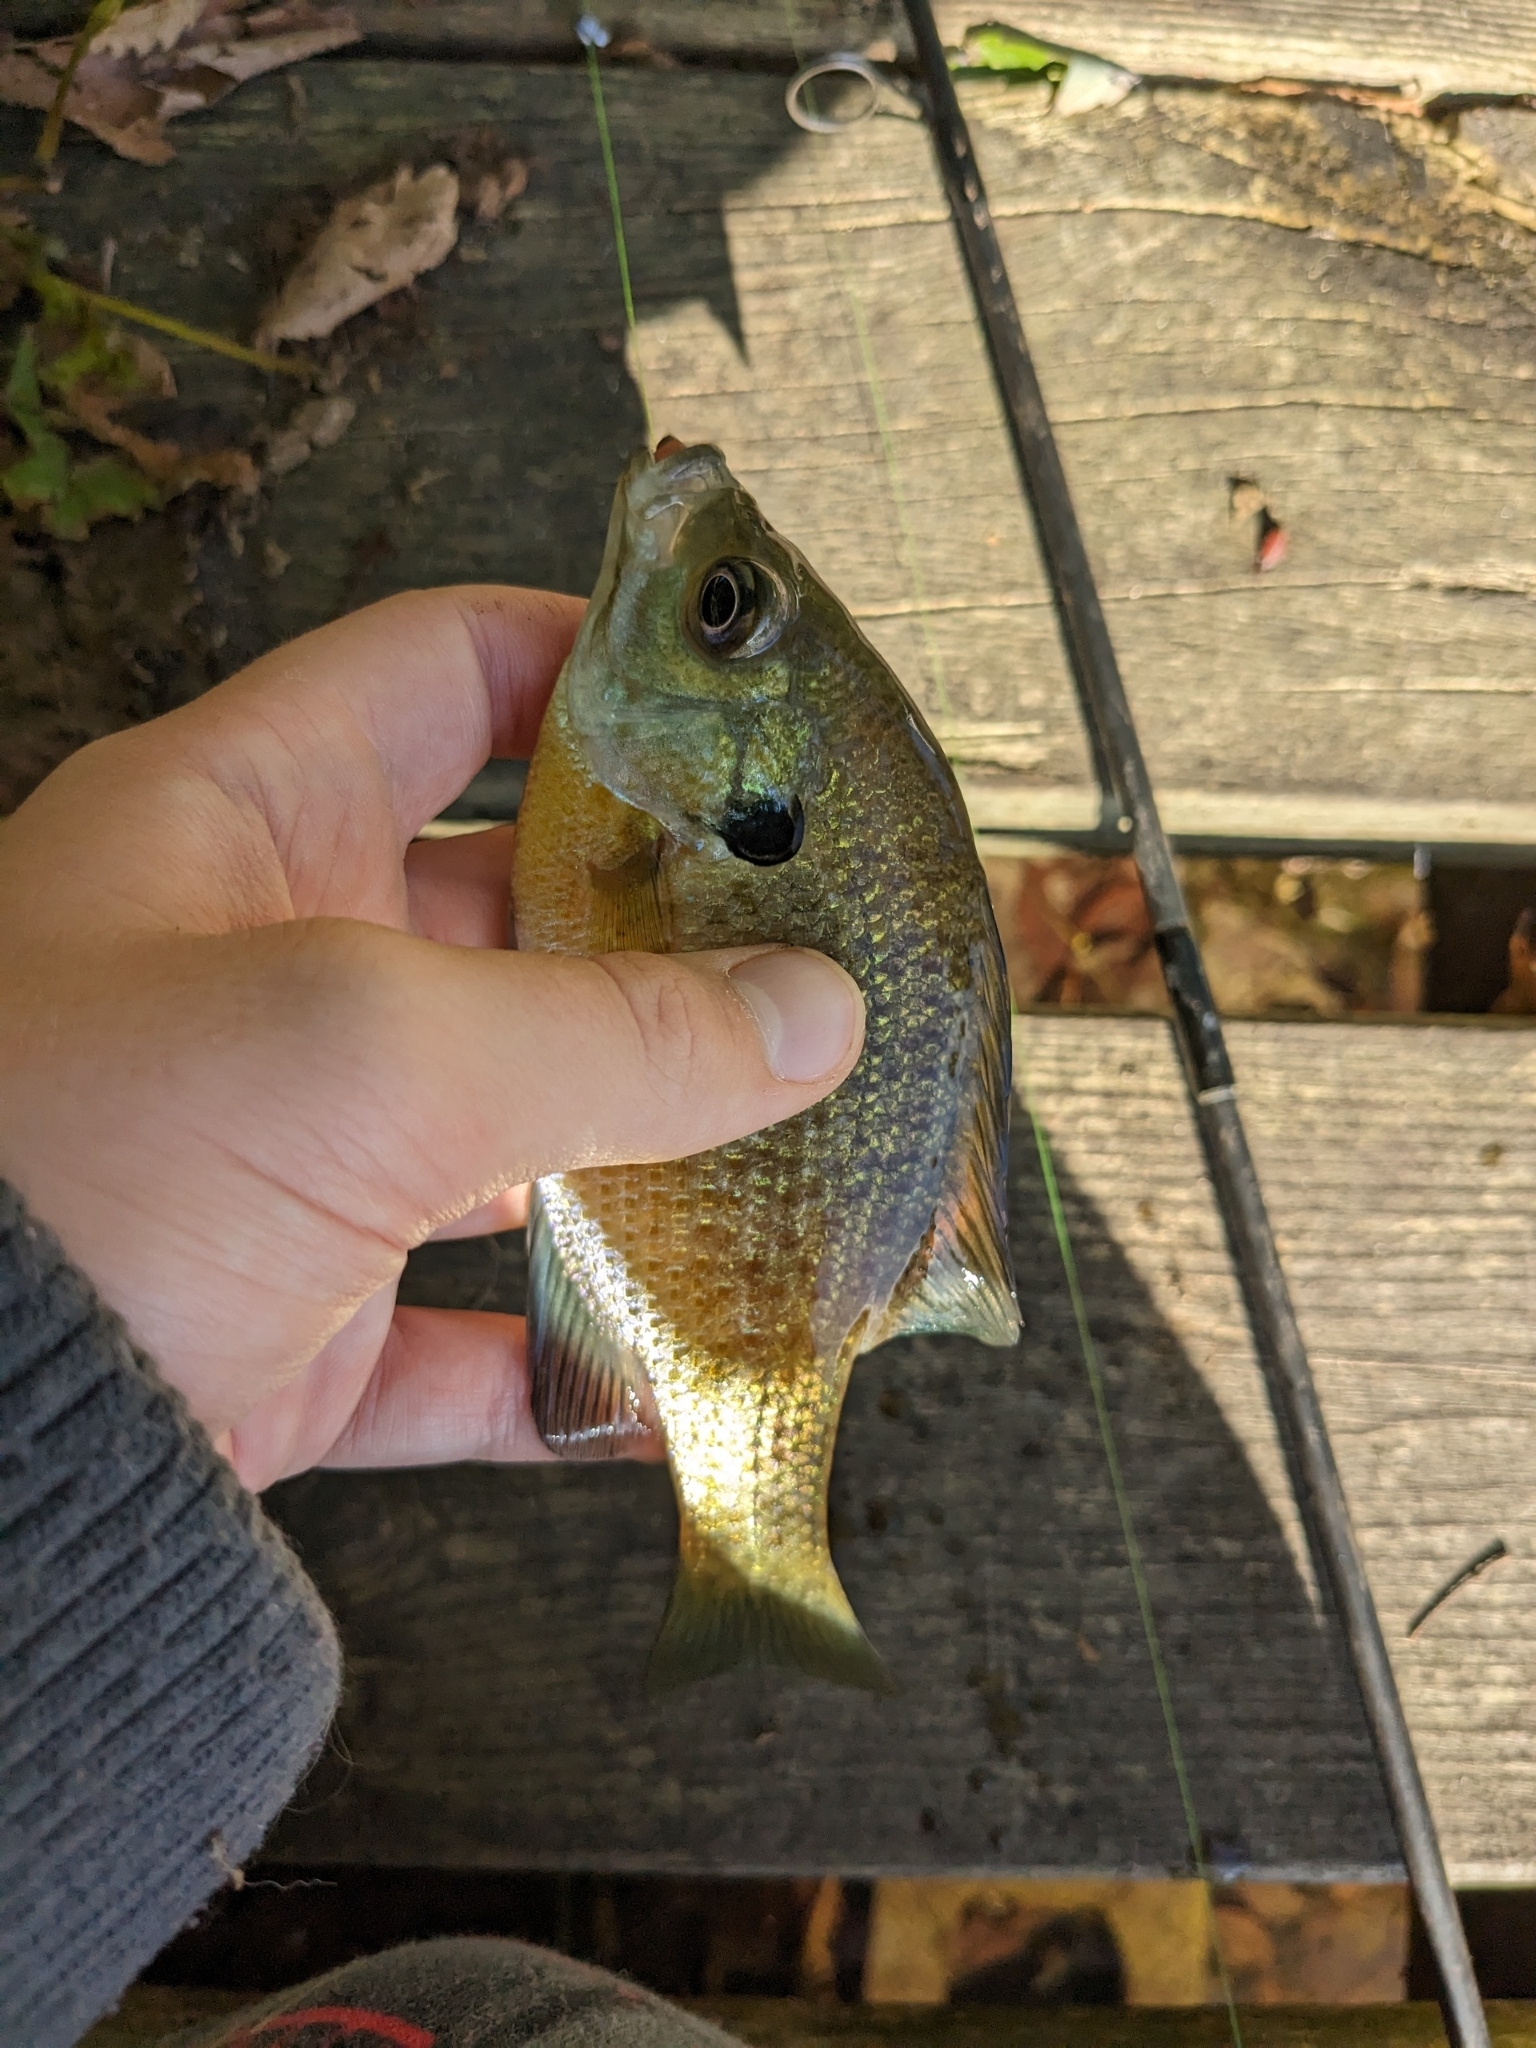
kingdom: Animalia
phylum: Chordata
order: Perciformes
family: Centrarchidae
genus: Lepomis
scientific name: Lepomis macrochirus
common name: Bluegill
